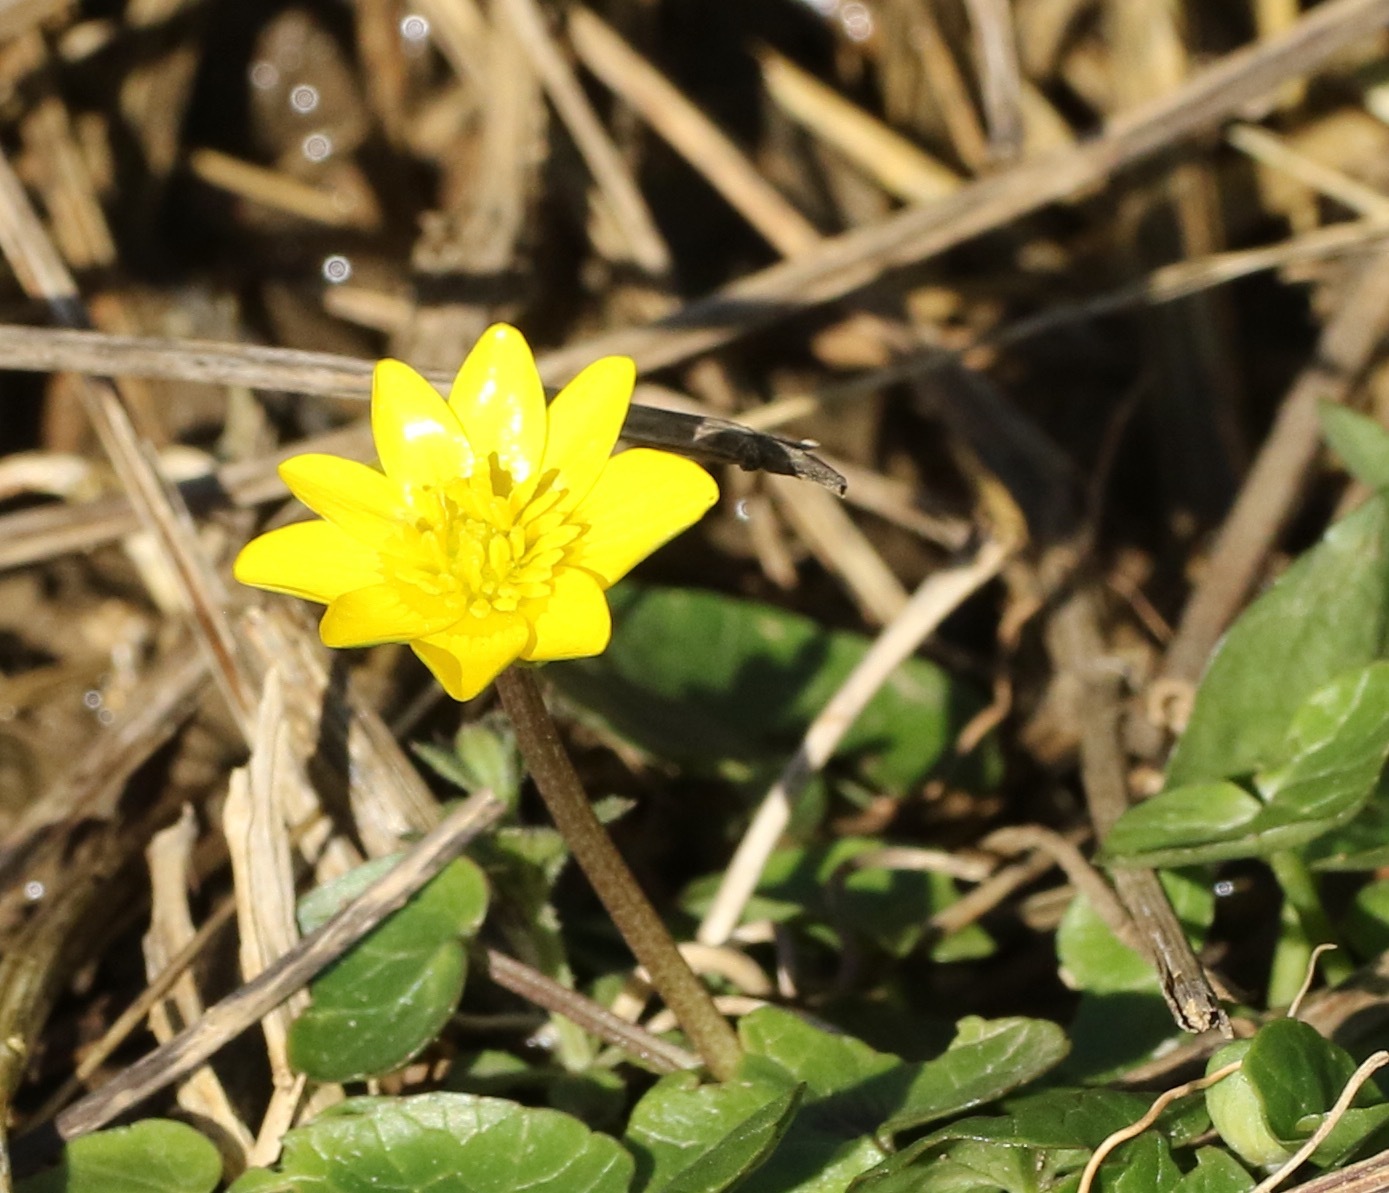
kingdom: Plantae
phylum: Tracheophyta
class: Magnoliopsida
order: Ranunculales
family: Ranunculaceae
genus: Ficaria
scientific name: Ficaria verna
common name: Lesser celandine
